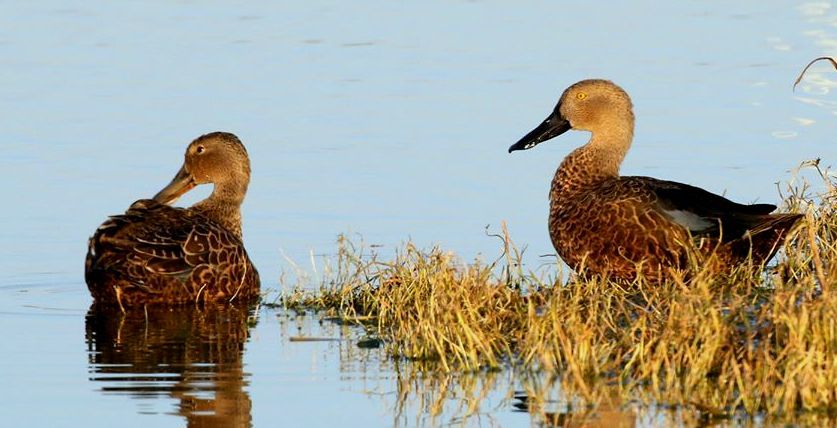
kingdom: Animalia
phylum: Chordata
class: Aves
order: Anseriformes
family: Anatidae
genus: Spatula
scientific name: Spatula smithii
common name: Cape shoveler
